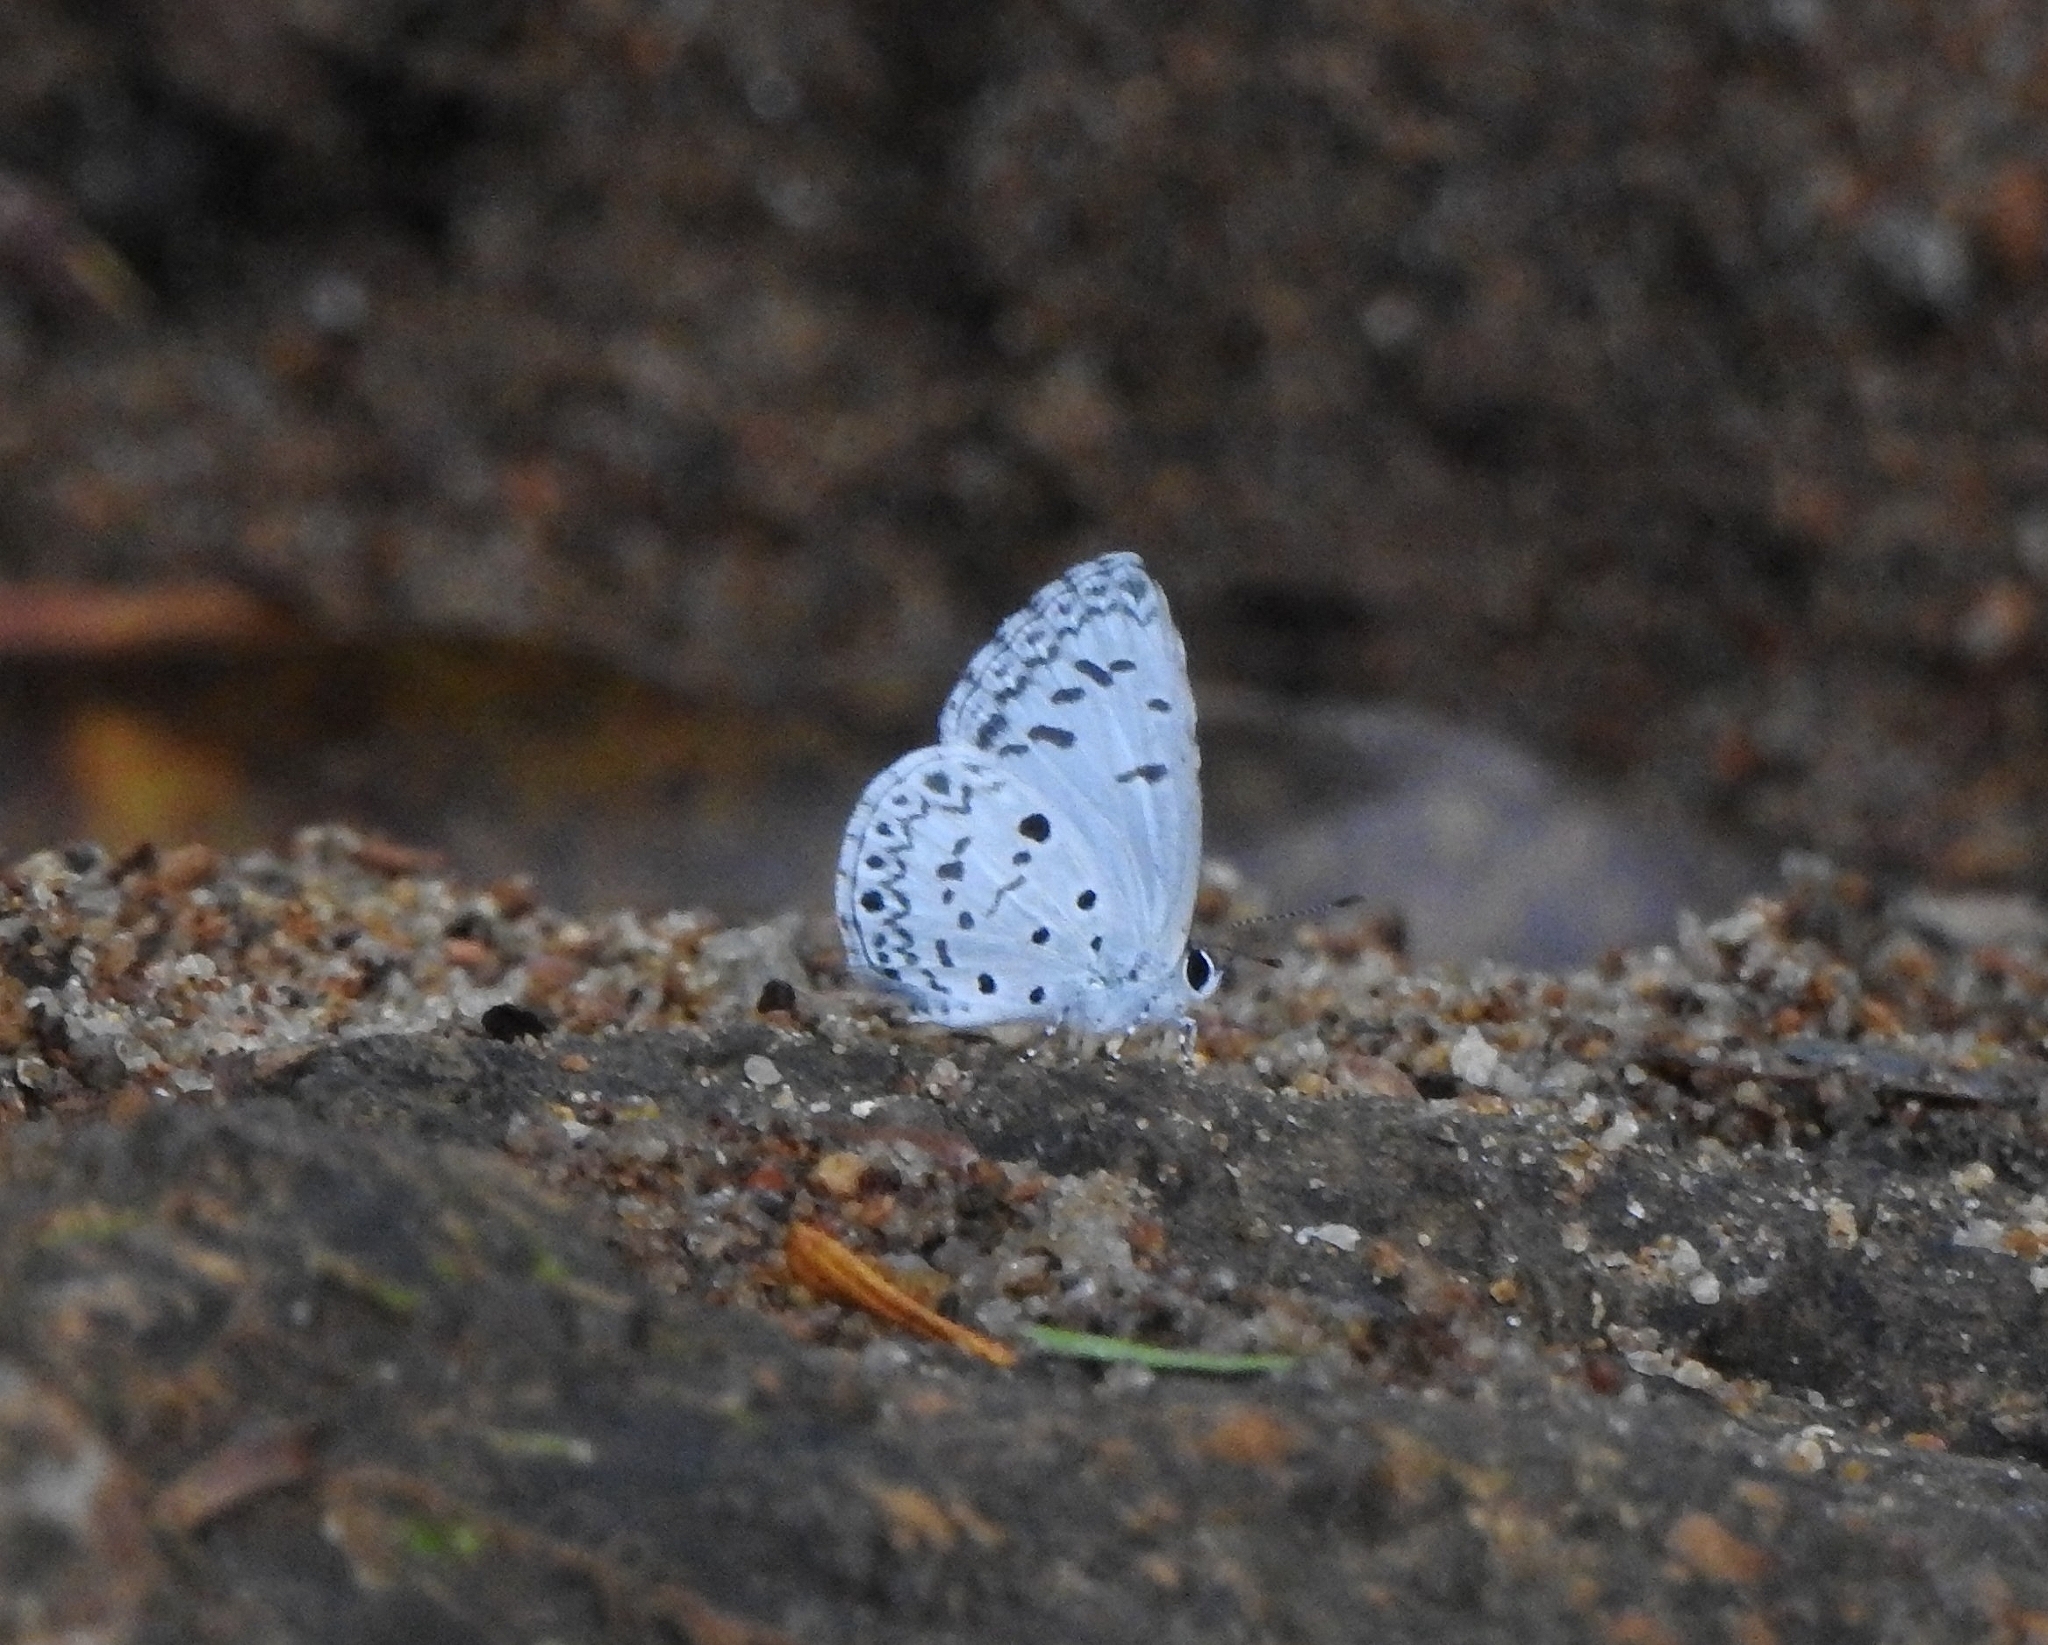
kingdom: Animalia
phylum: Arthropoda
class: Insecta
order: Lepidoptera
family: Lycaenidae
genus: Acytolepis
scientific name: Acytolepis puspa
